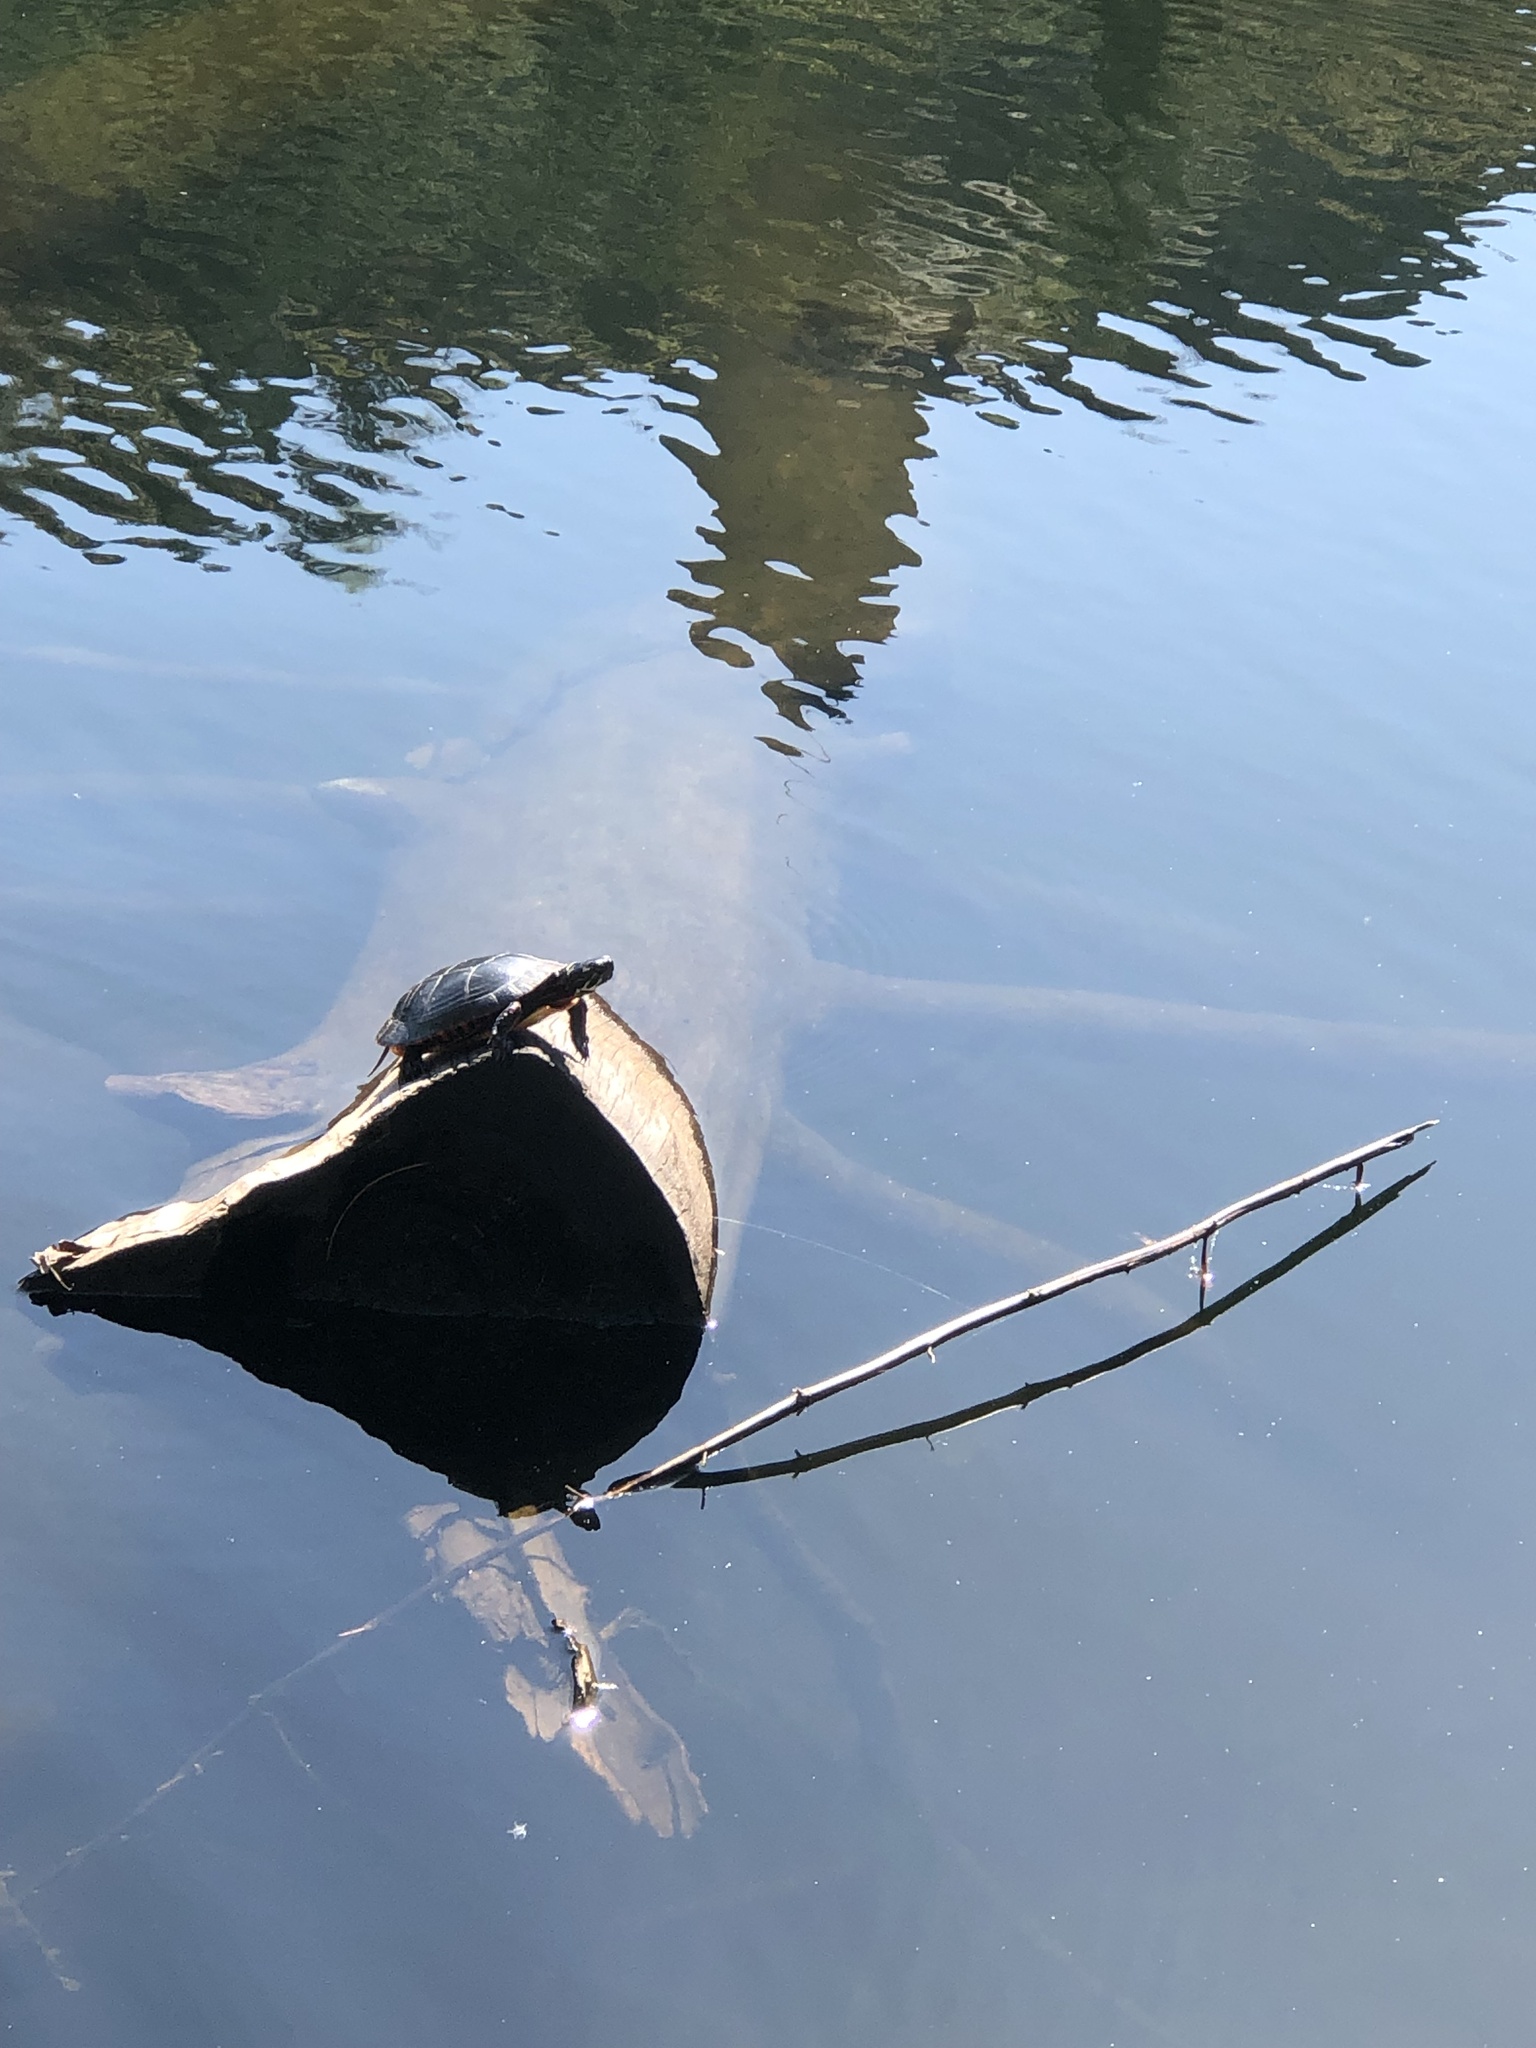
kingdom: Animalia
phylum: Chordata
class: Testudines
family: Emydidae
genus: Chrysemys
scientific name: Chrysemys picta
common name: Painted turtle
